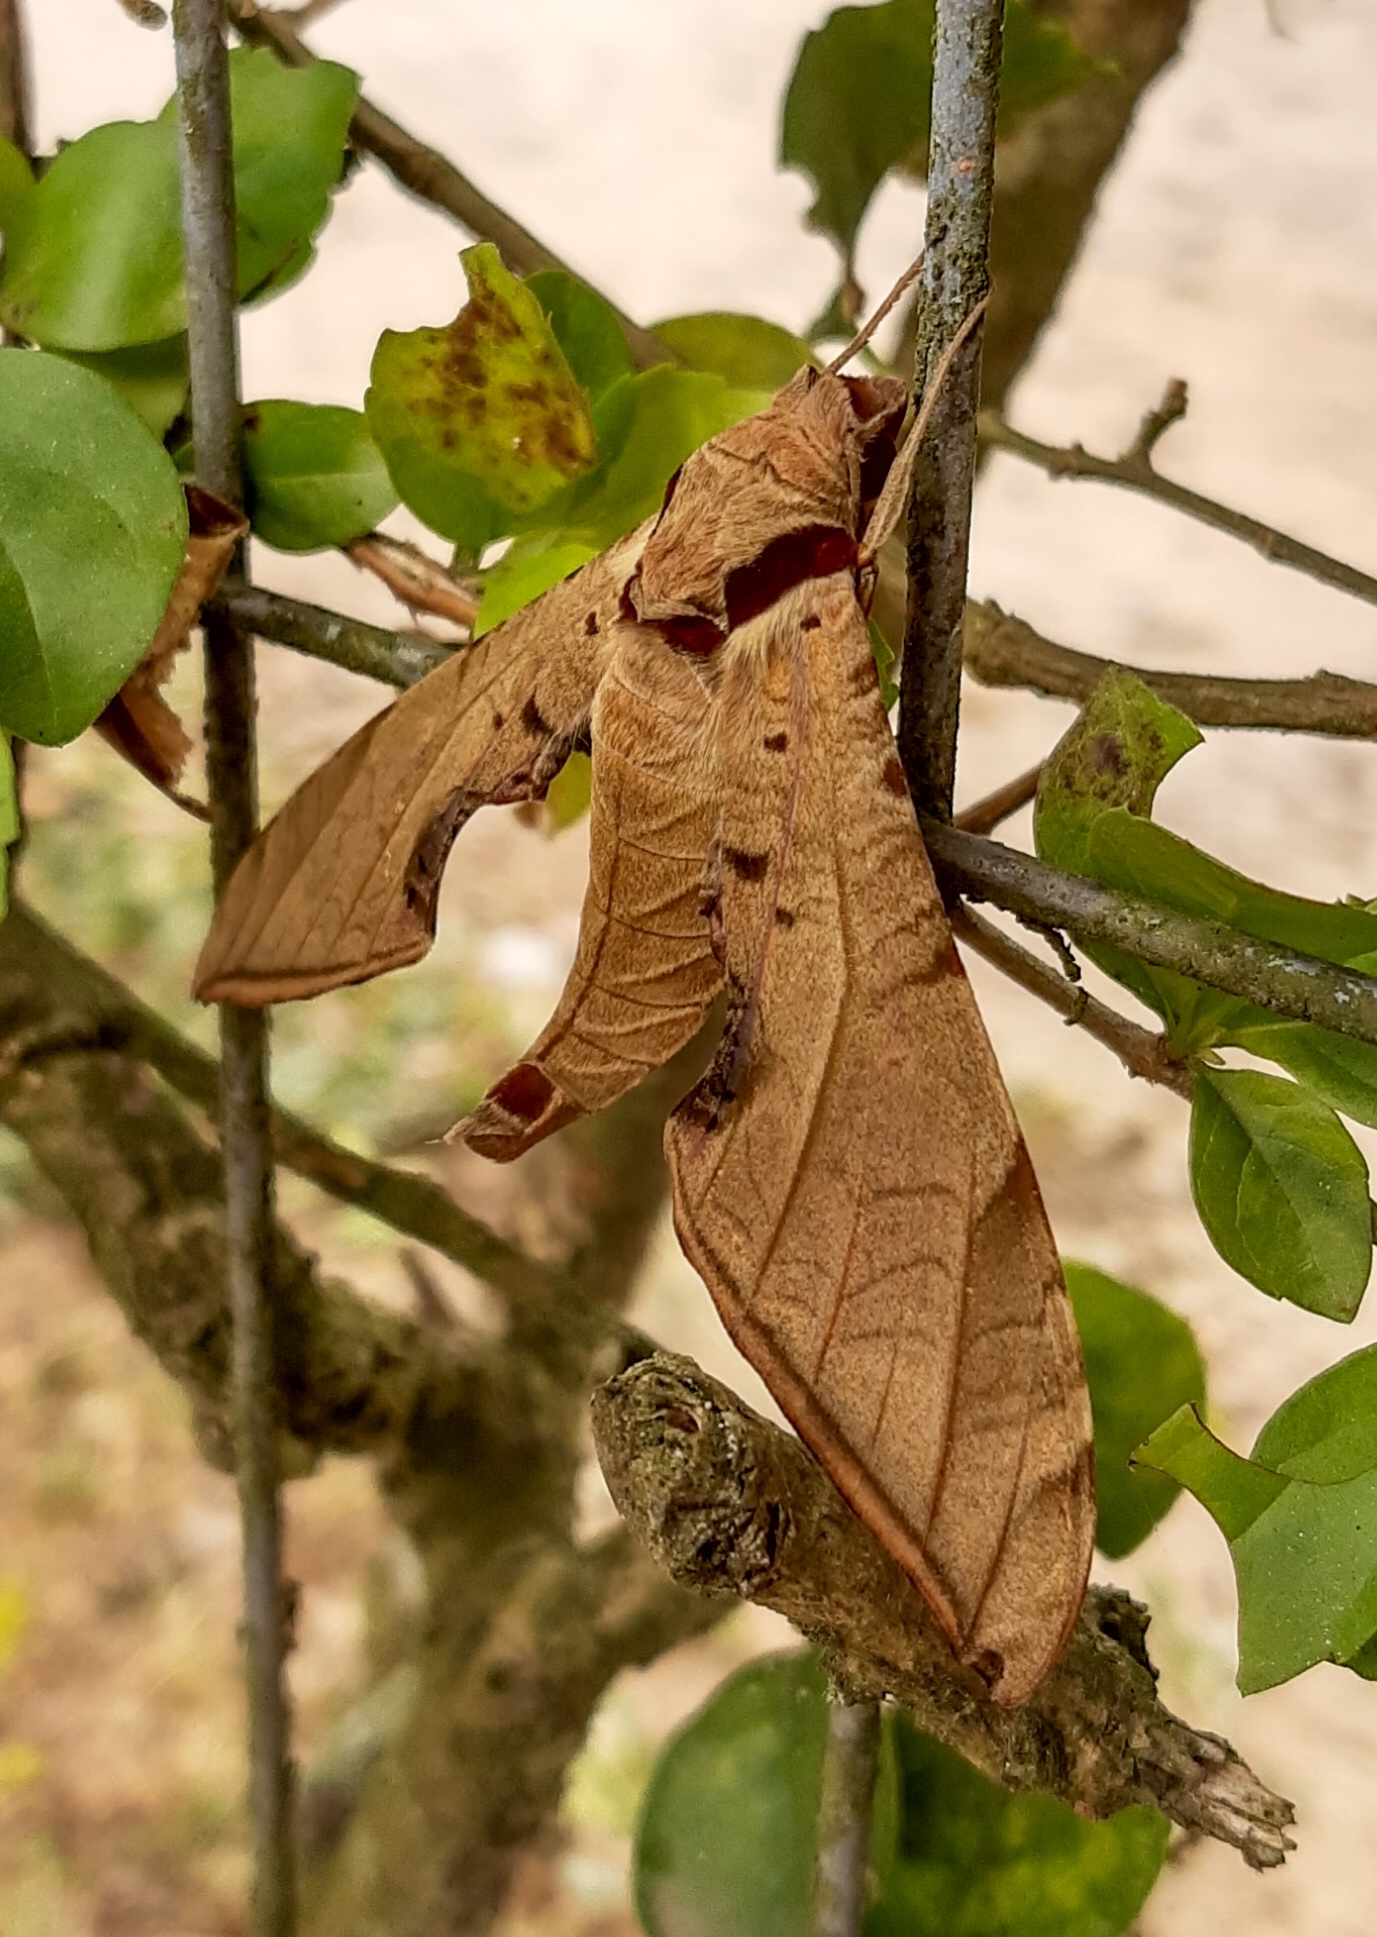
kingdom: Animalia
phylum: Arthropoda
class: Insecta
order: Lepidoptera
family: Sphingidae
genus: Protambulyx
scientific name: Protambulyx strigilis
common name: Streaked sphinx
